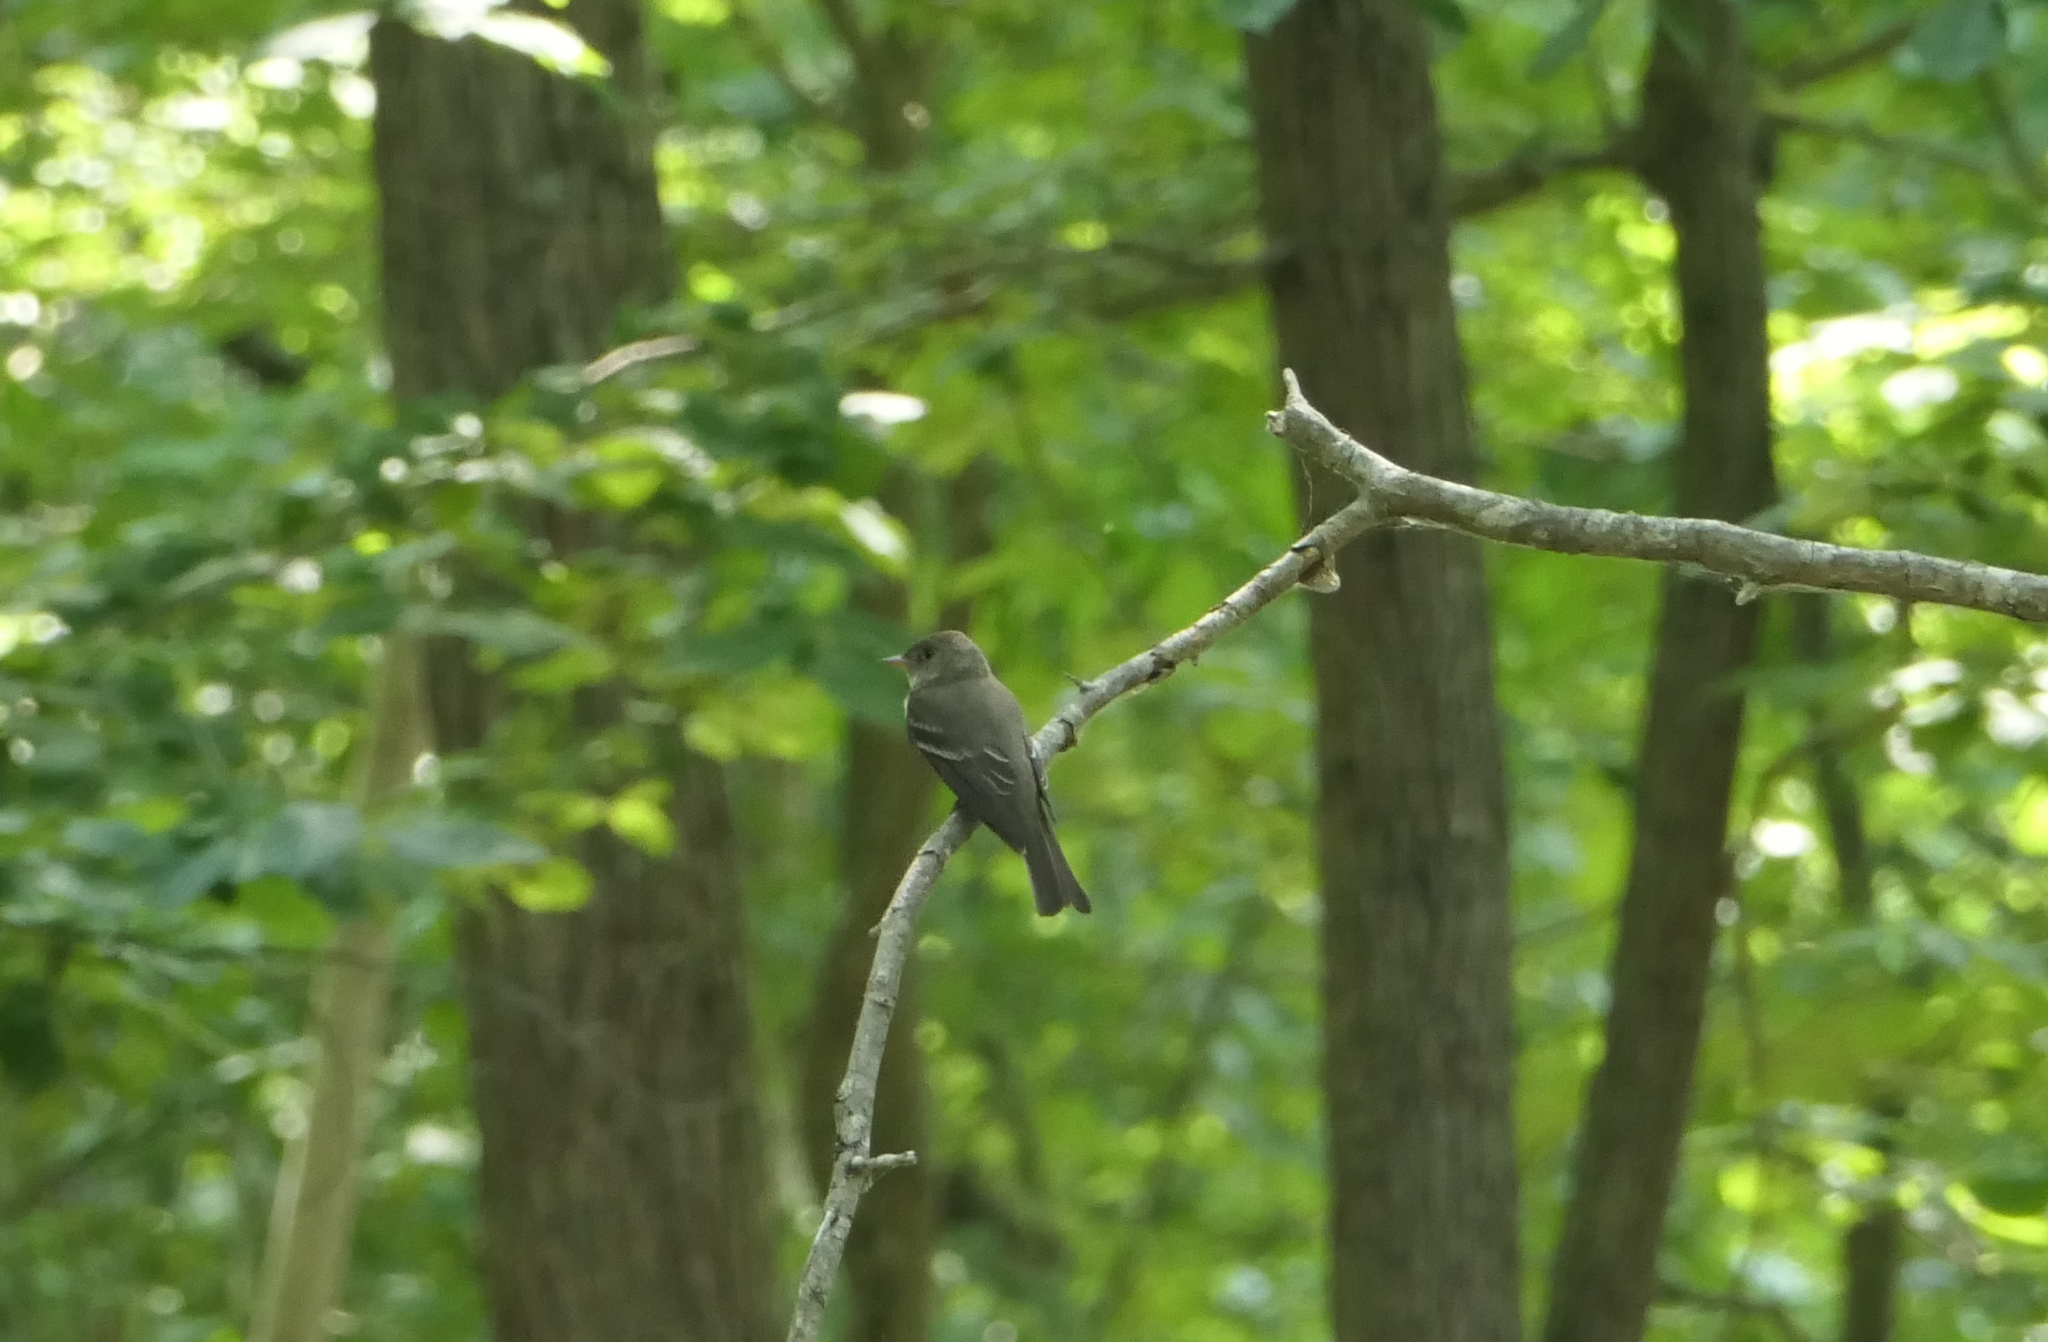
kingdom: Animalia
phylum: Chordata
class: Aves
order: Passeriformes
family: Tyrannidae
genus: Contopus
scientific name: Contopus virens
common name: Eastern wood-pewee
